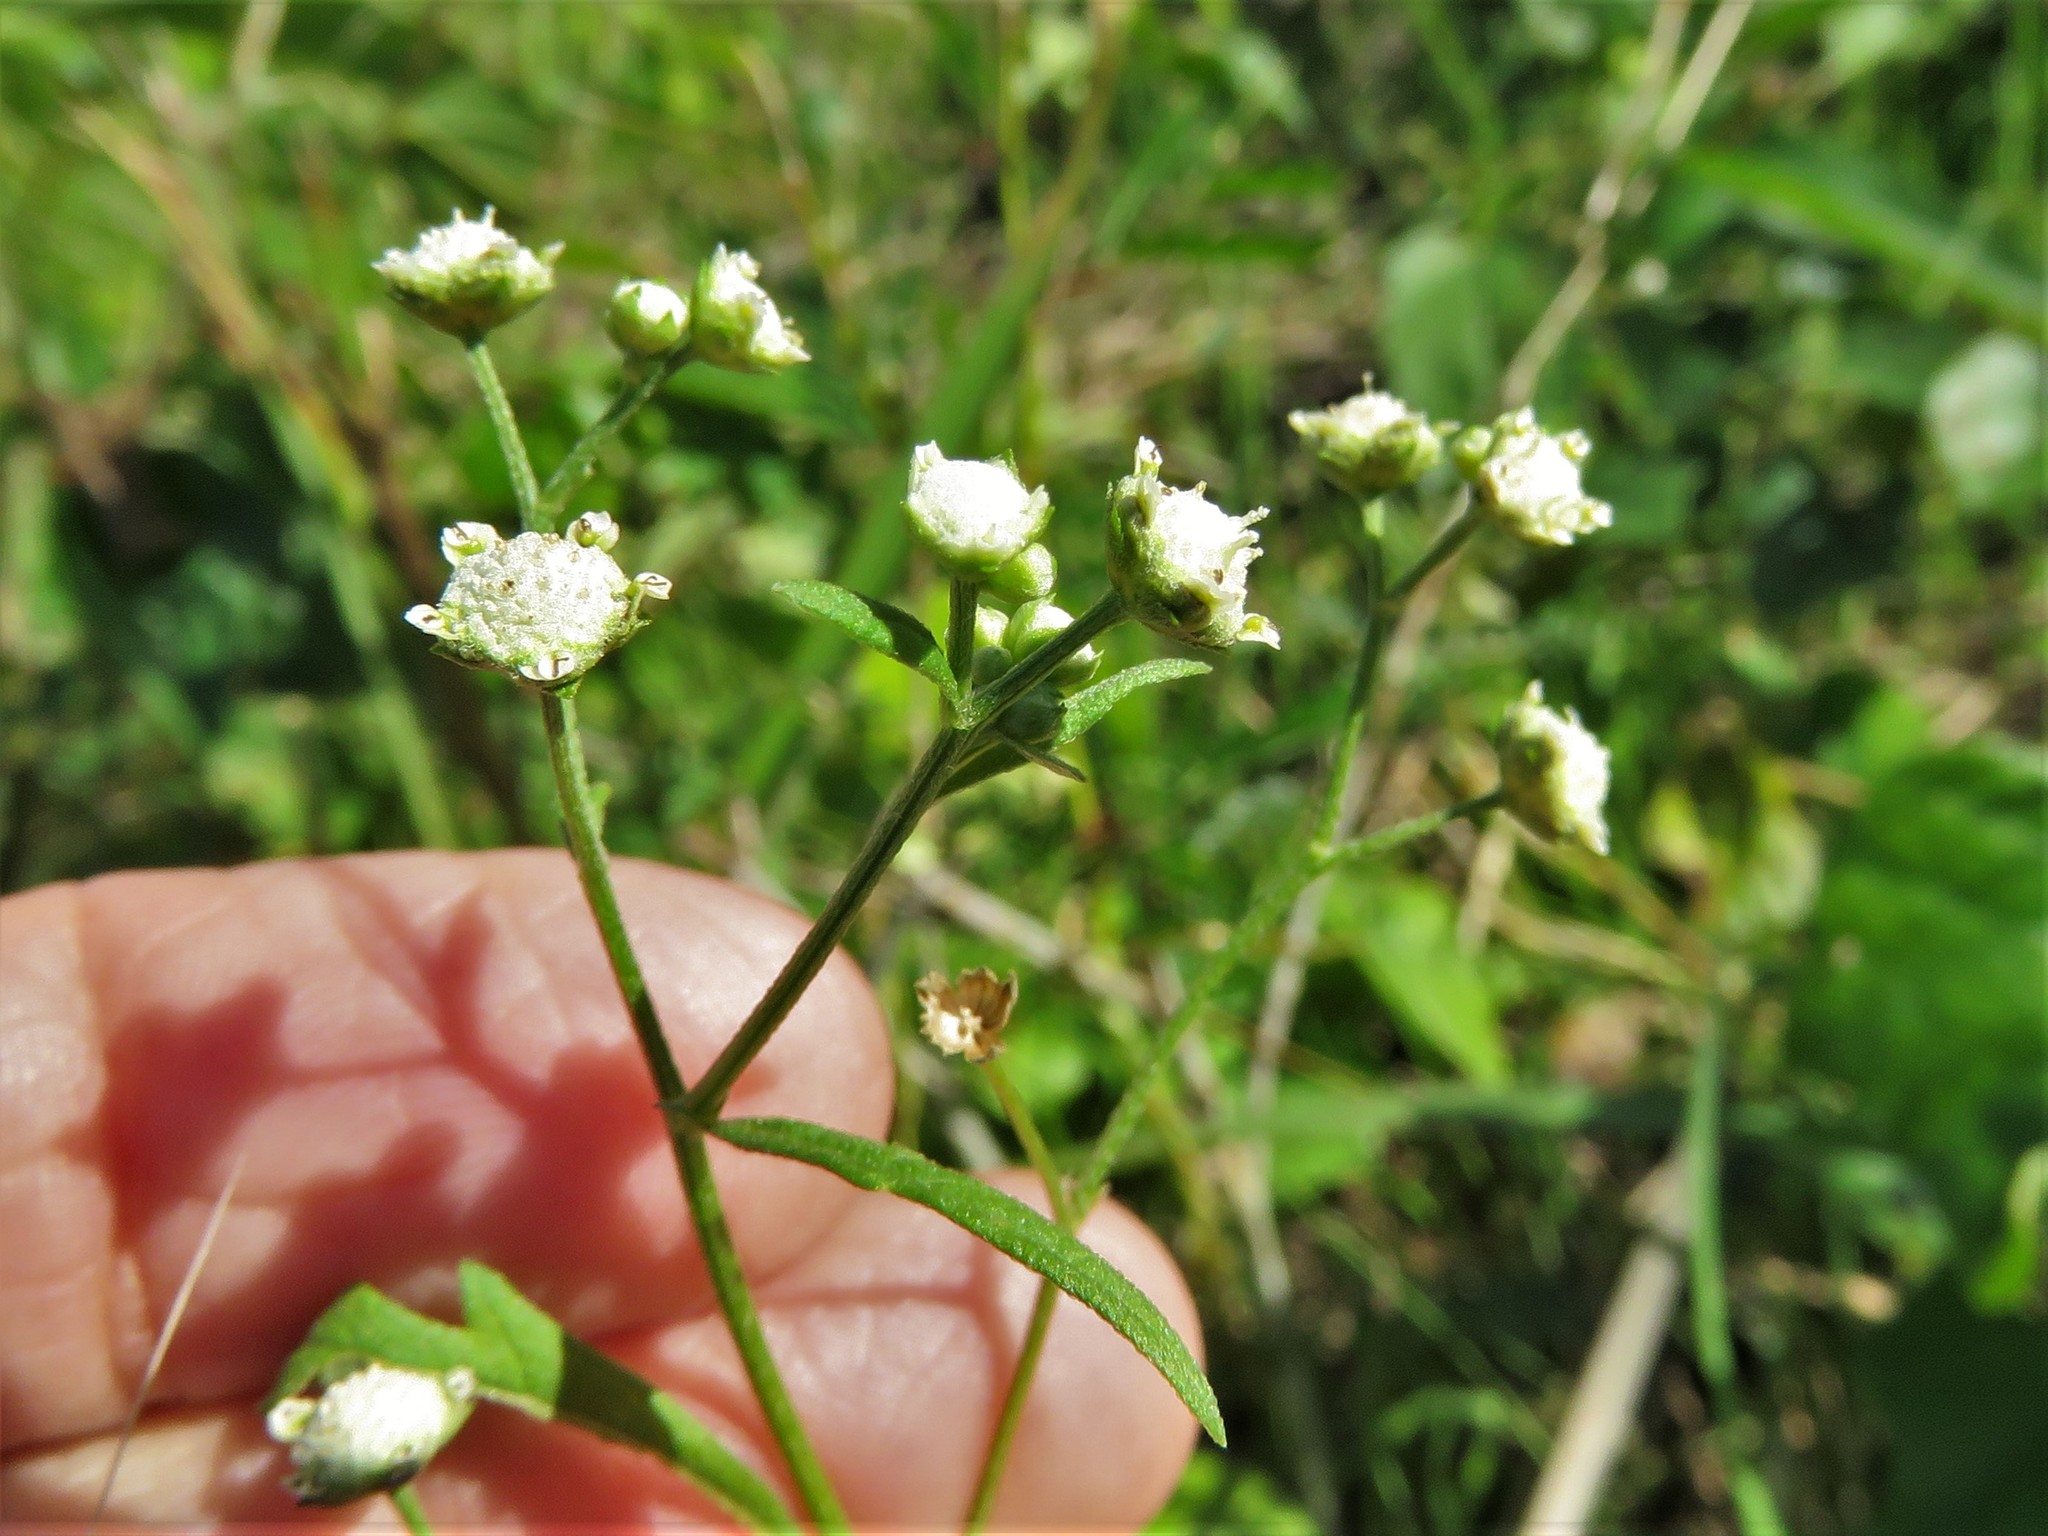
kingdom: Plantae
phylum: Tracheophyta
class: Magnoliopsida
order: Asterales
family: Asteraceae
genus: Parthenium
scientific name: Parthenium hysterophorus
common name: Santa maria feverfew
